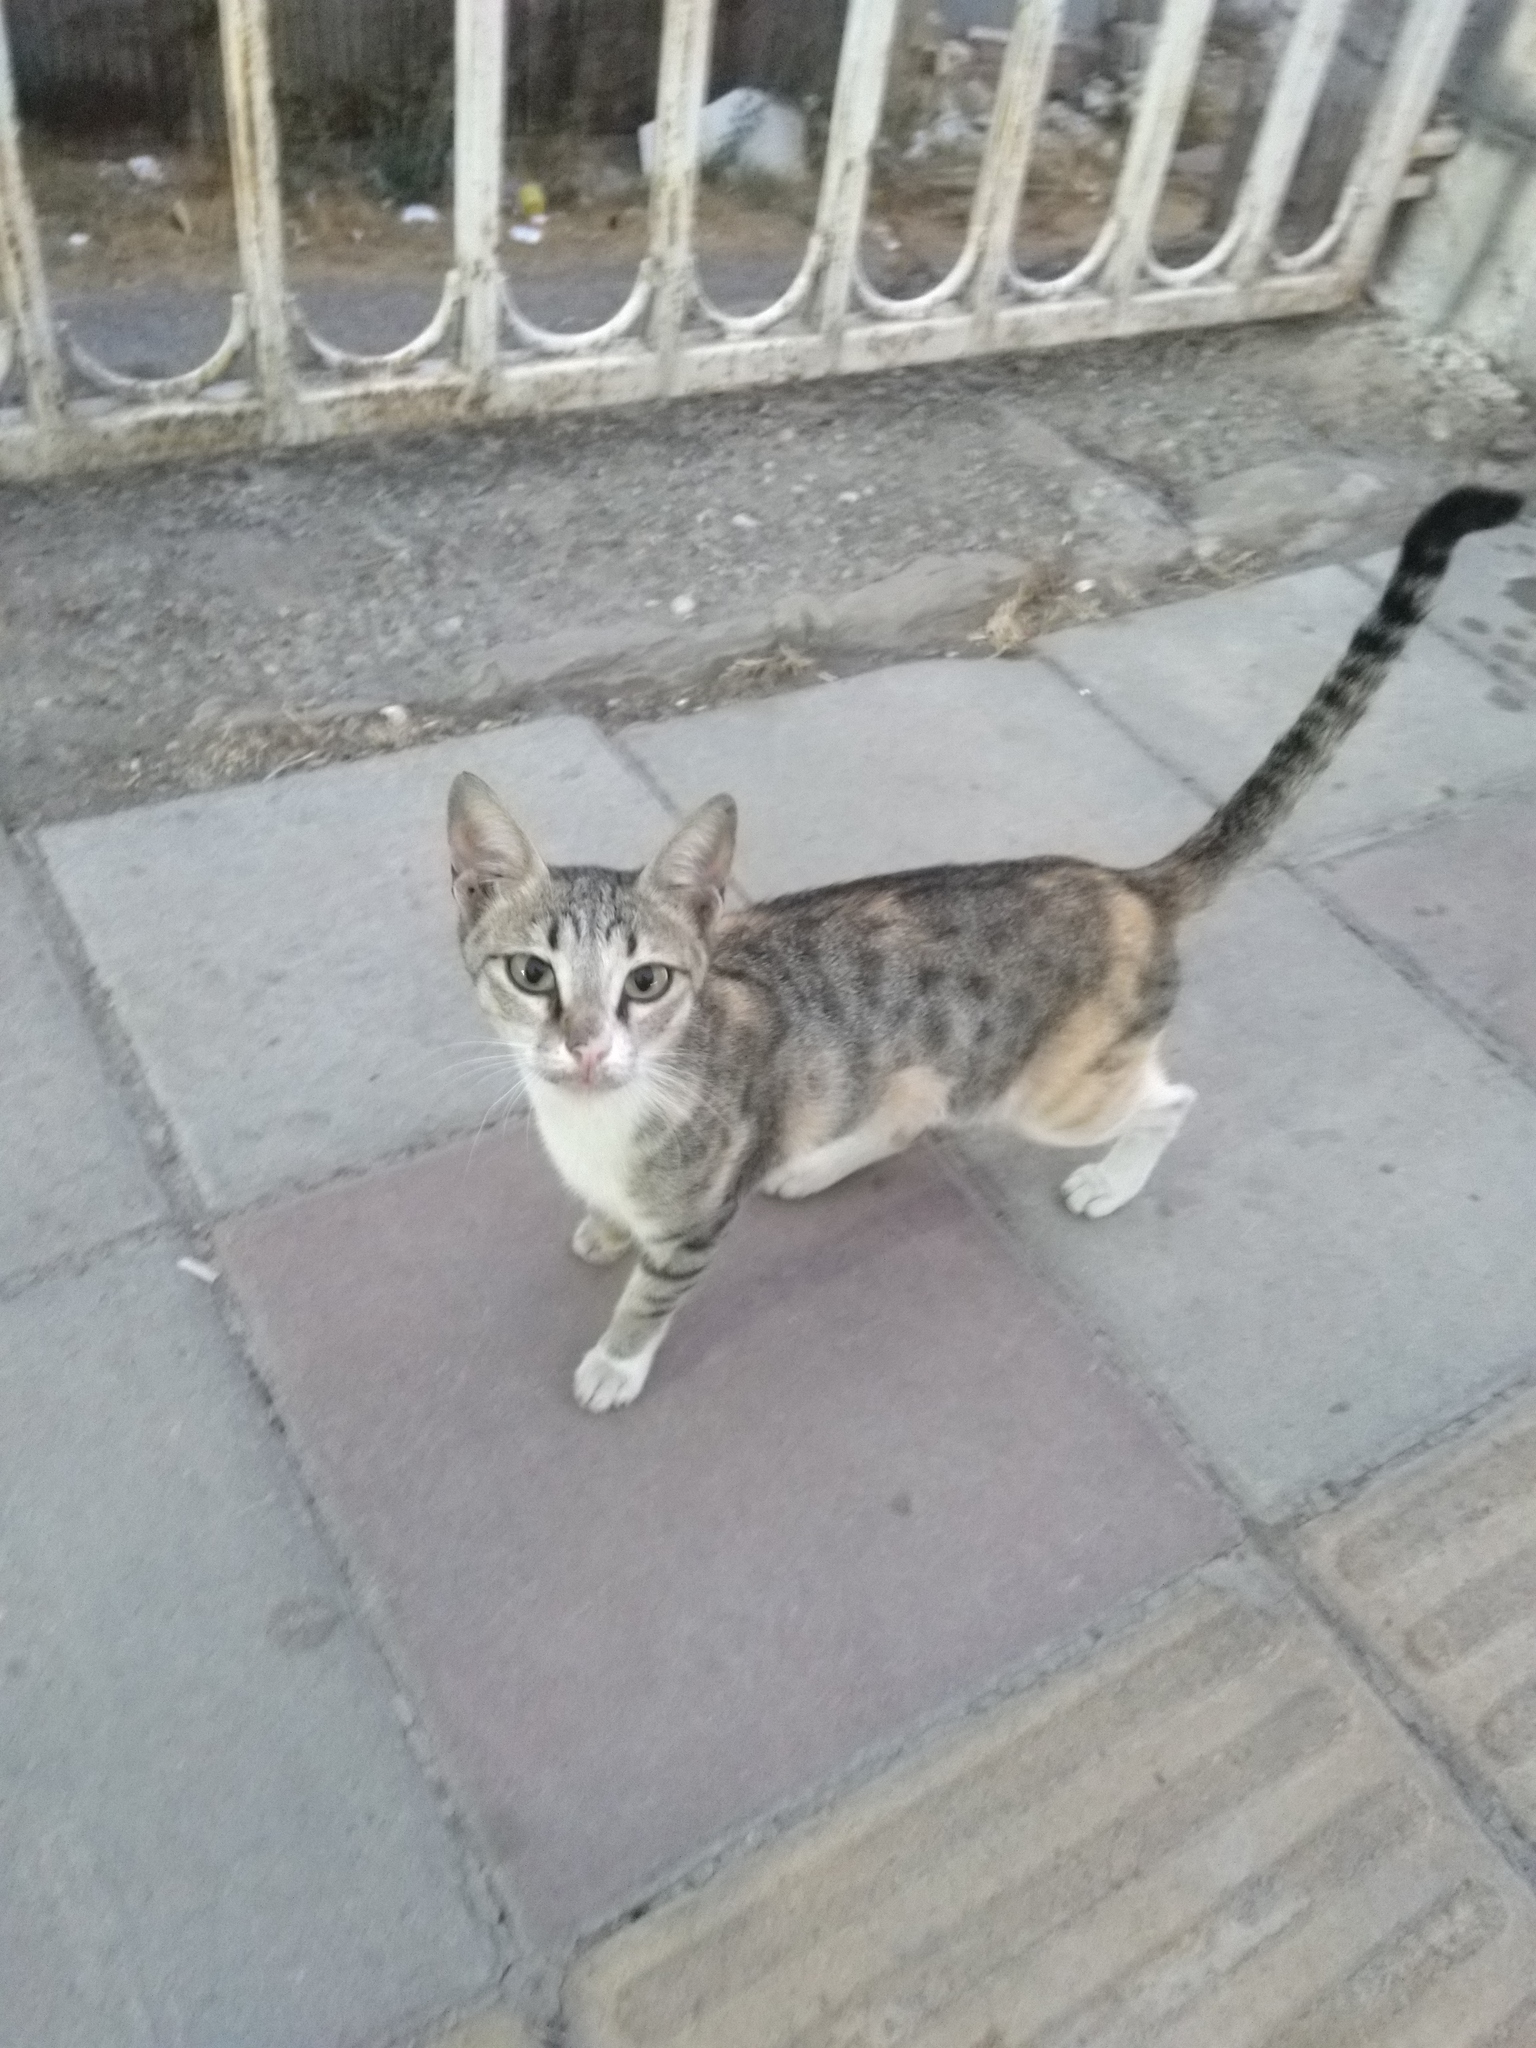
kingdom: Animalia
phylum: Chordata
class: Mammalia
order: Carnivora
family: Felidae
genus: Felis
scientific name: Felis catus
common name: Domestic cat
